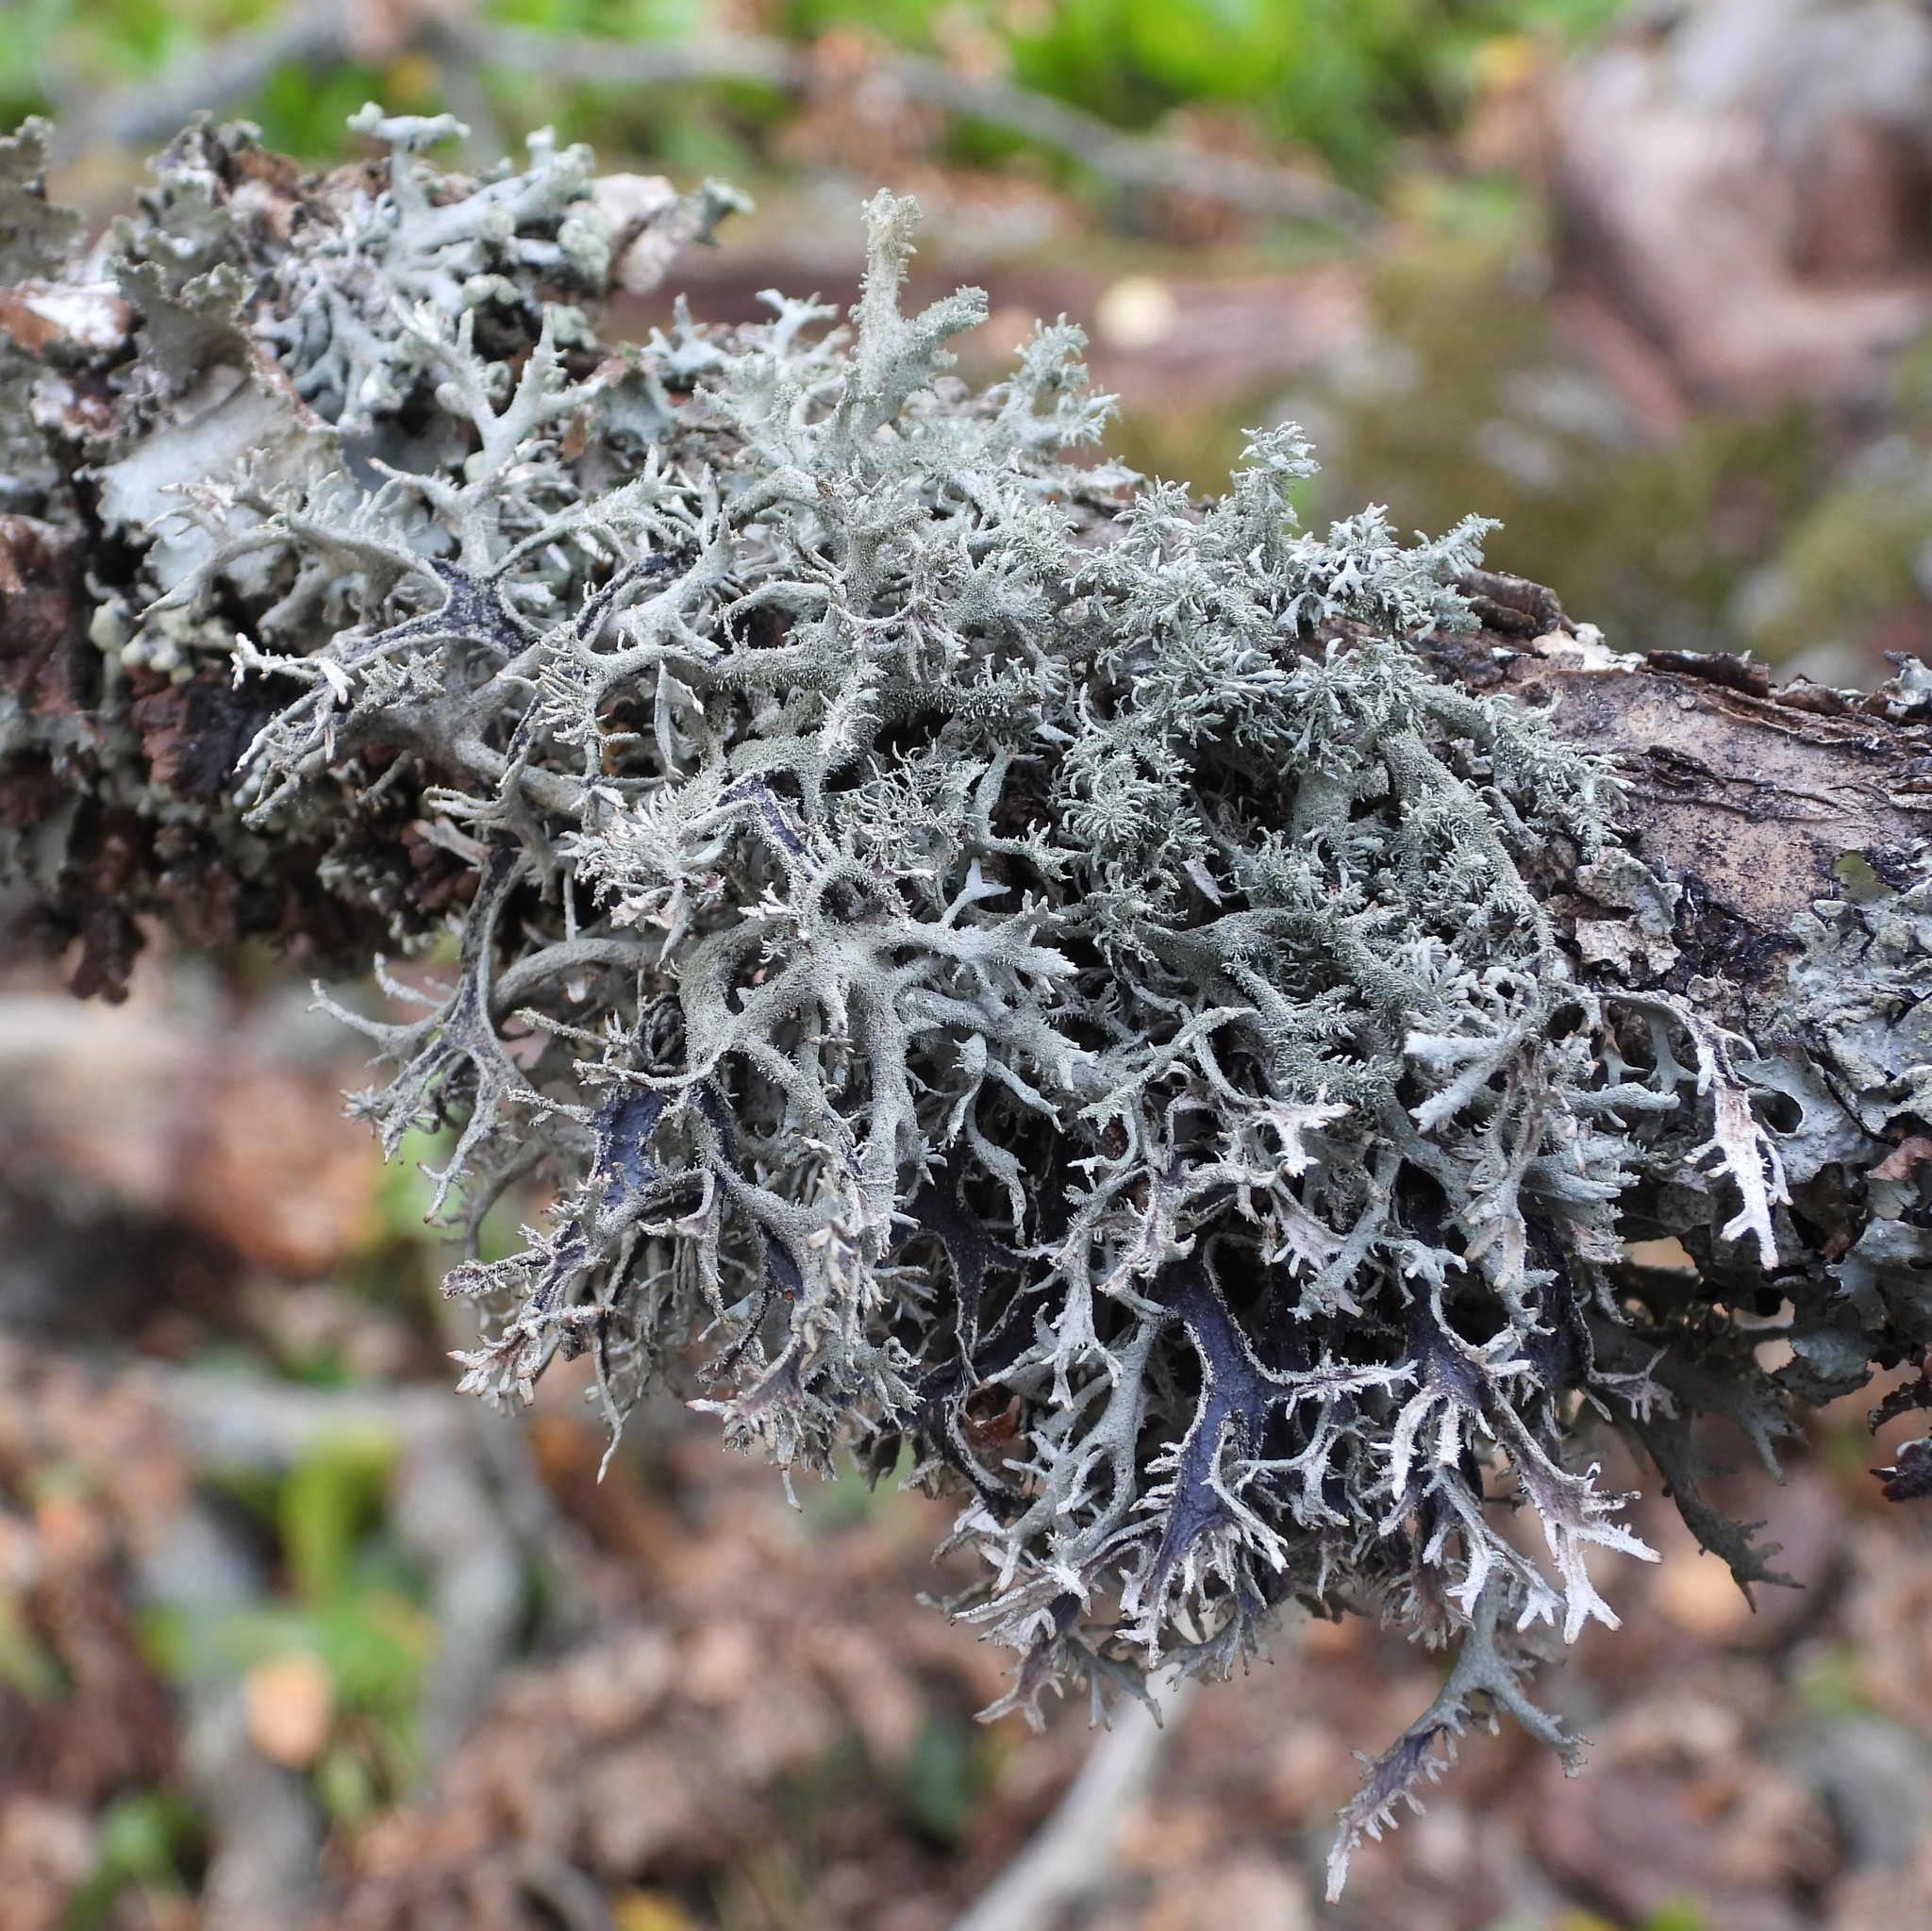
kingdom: Fungi
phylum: Ascomycota
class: Lecanoromycetes
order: Lecanorales
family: Parmeliaceae
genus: Pseudevernia
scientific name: Pseudevernia furfuracea
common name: Tree moss
